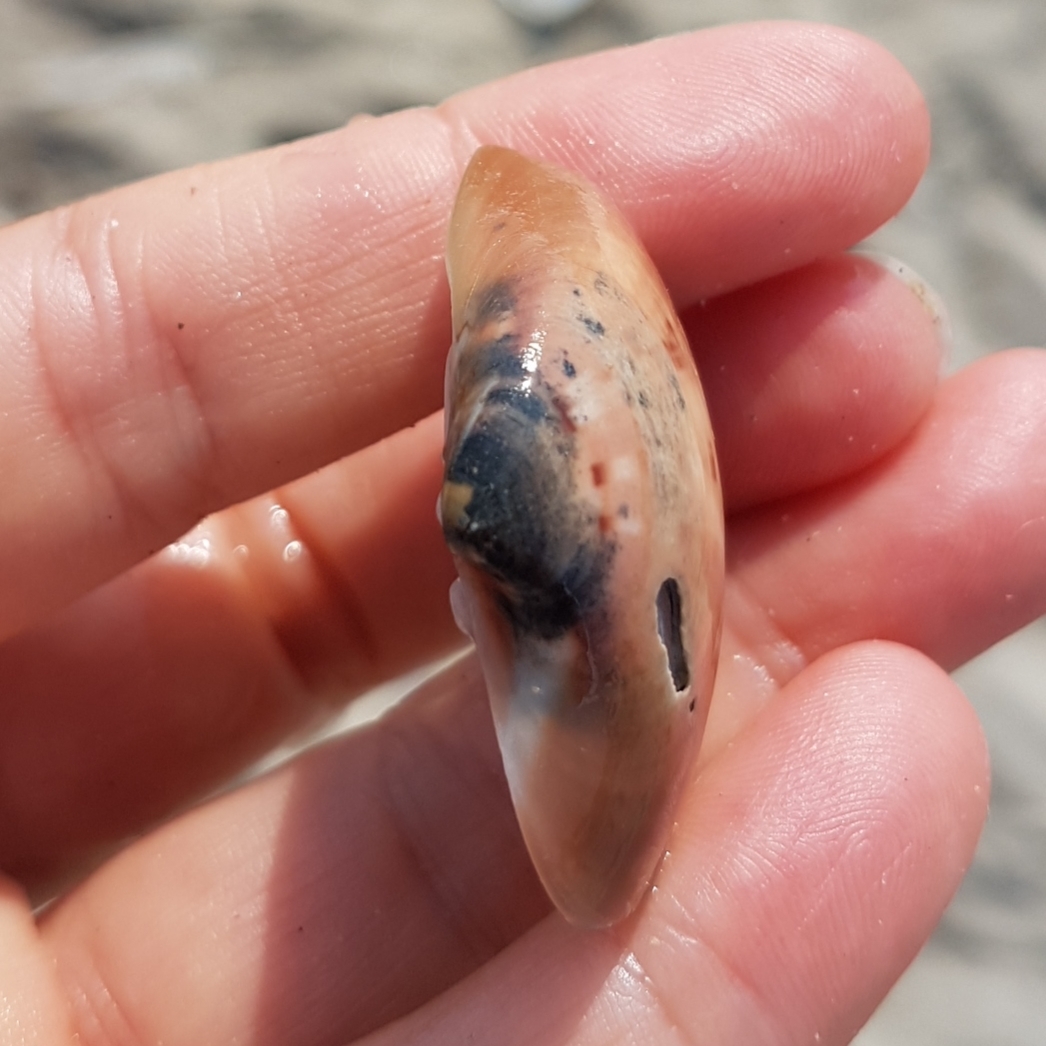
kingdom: Animalia
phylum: Mollusca
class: Bivalvia
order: Venerida
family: Veneridae
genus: Callista
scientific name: Callista chione
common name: Brown venus
